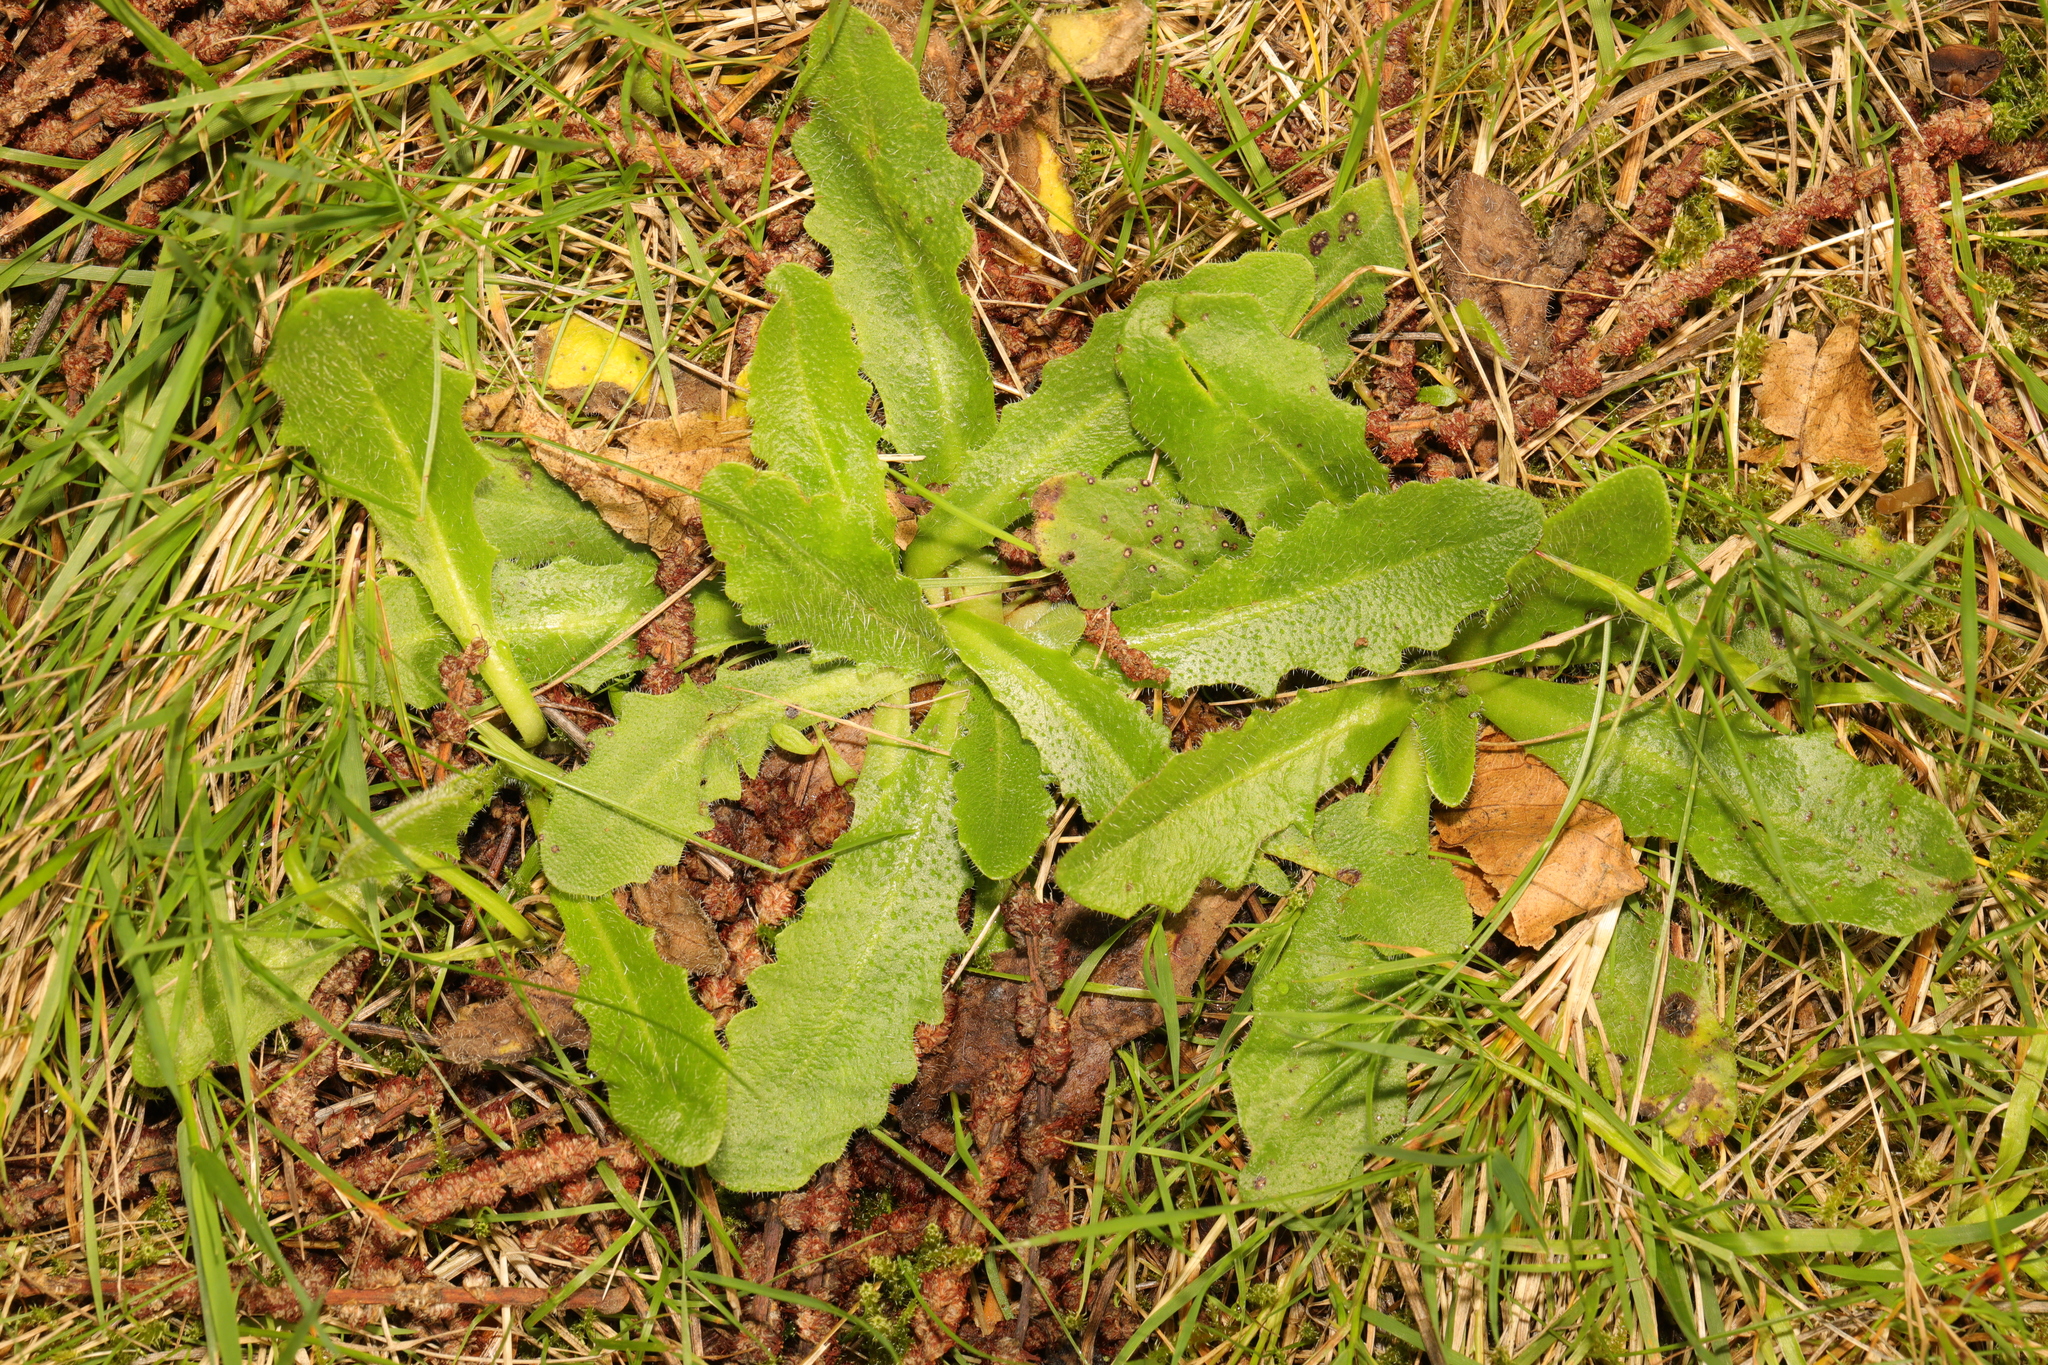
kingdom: Plantae
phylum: Tracheophyta
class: Magnoliopsida
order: Asterales
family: Asteraceae
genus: Hypochaeris
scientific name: Hypochaeris radicata
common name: Flatweed
